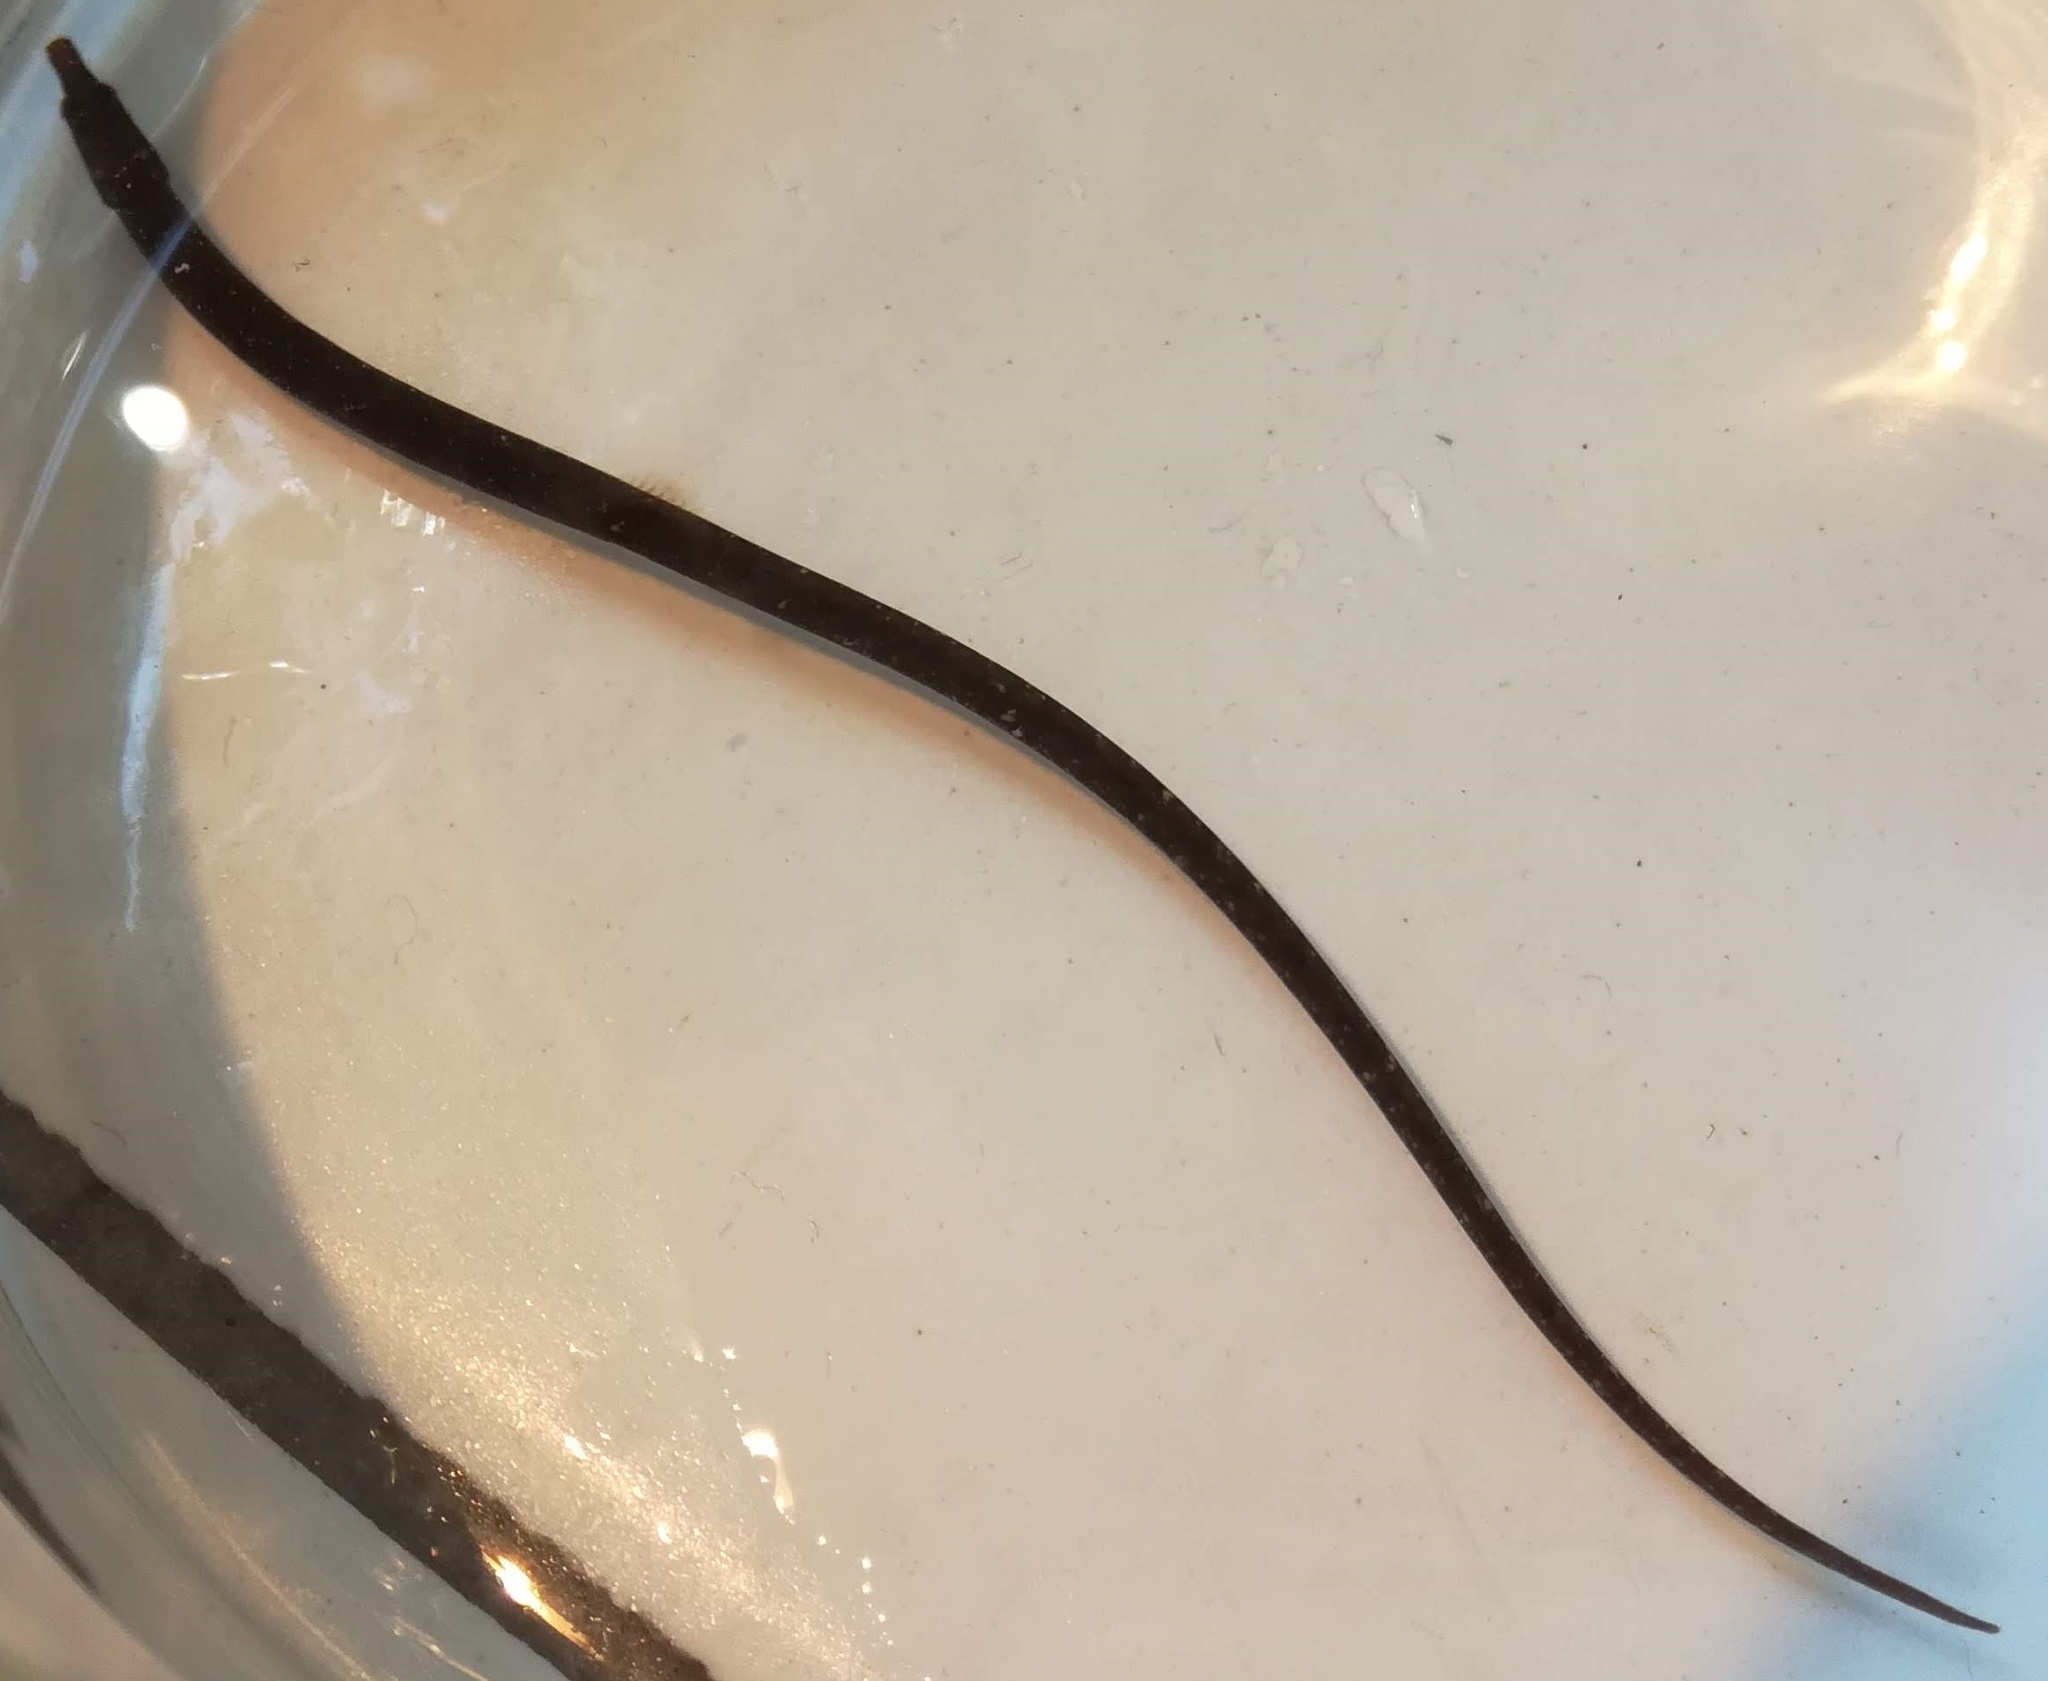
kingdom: Animalia
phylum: Chordata
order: Syngnathiformes
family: Syngnathidae
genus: Nerophis
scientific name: Nerophis lumbriciformis
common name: Worm pipefish
